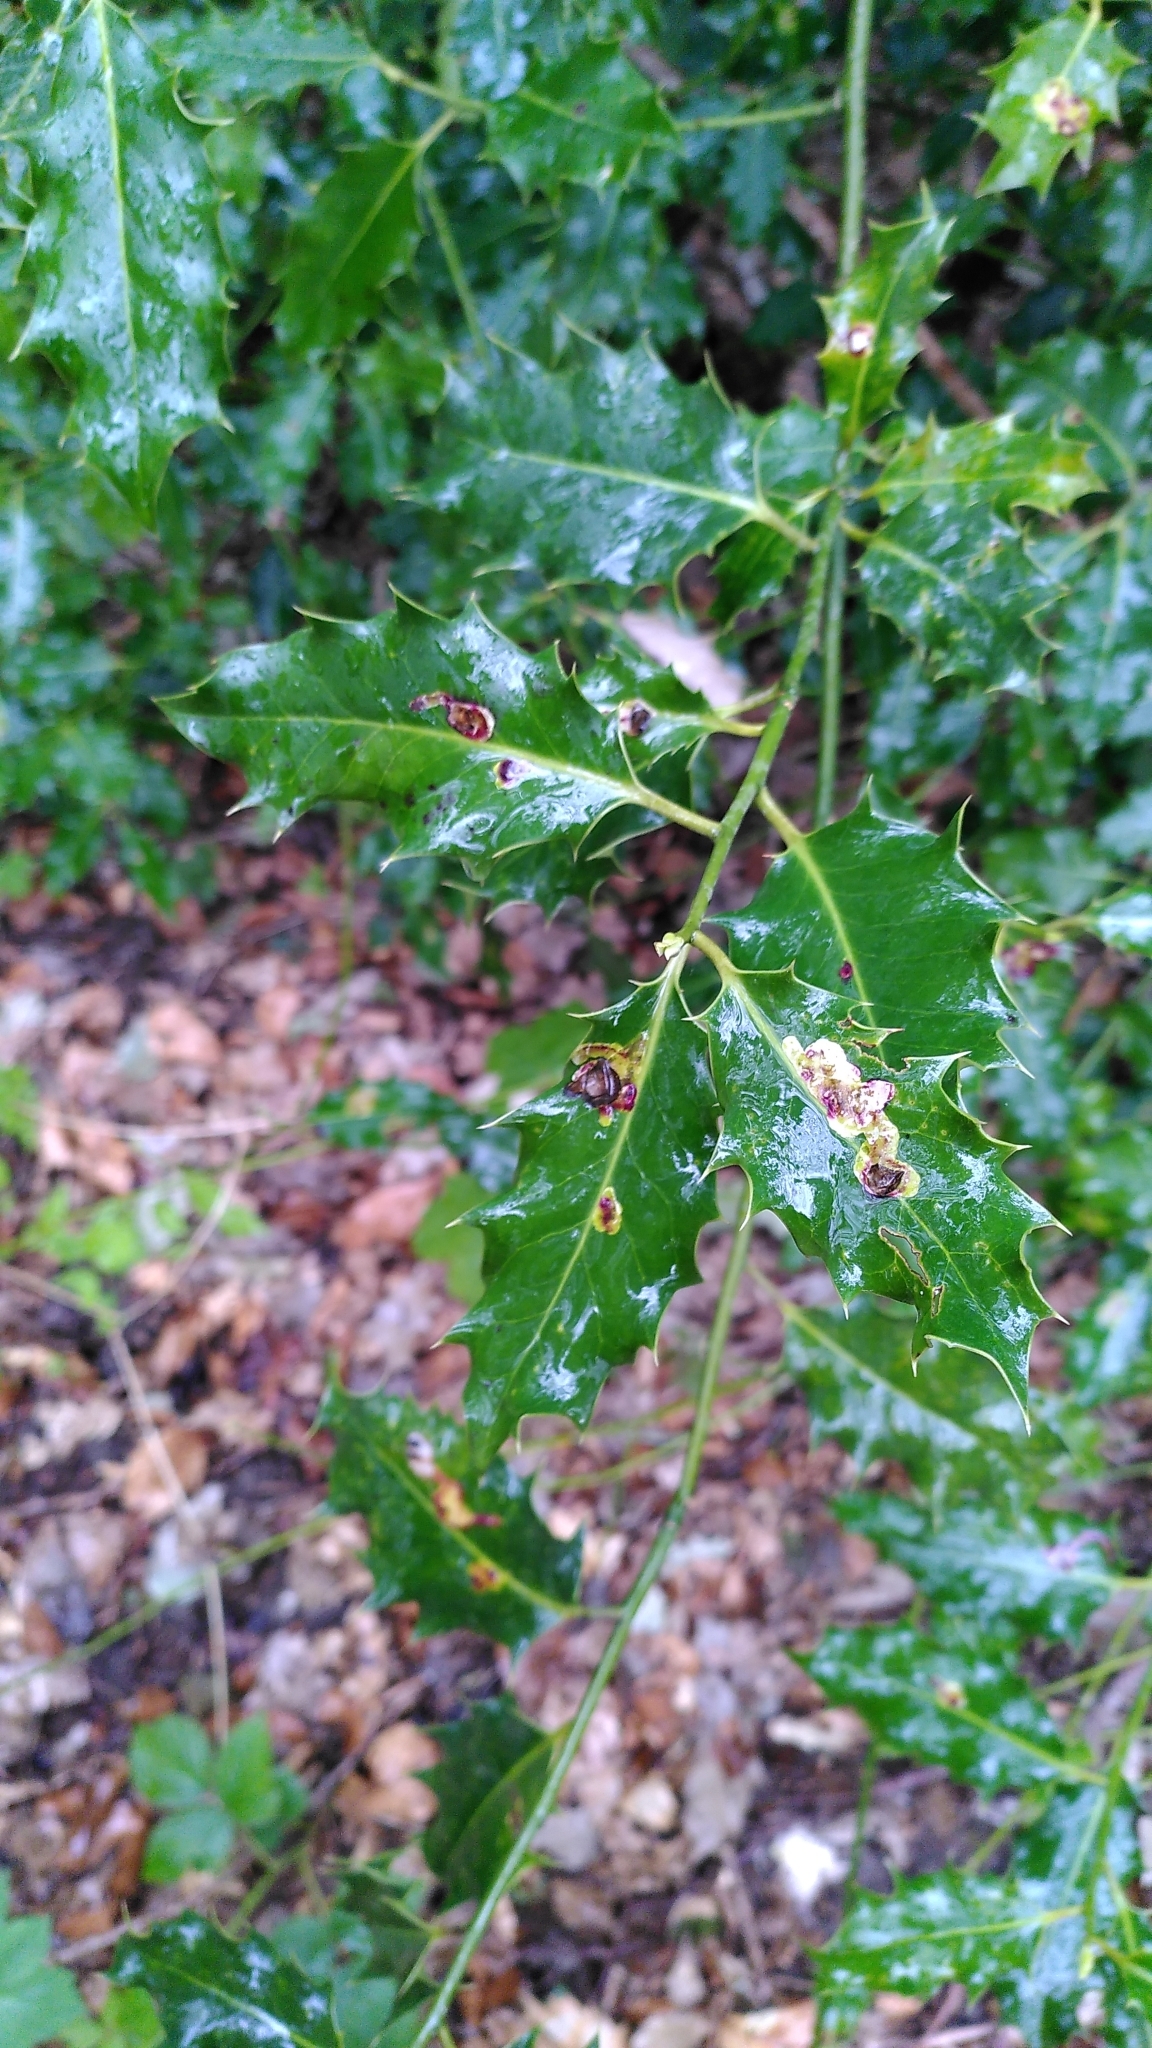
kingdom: Plantae
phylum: Tracheophyta
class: Magnoliopsida
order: Aquifoliales
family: Aquifoliaceae
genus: Ilex
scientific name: Ilex aquifolium
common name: English holly
